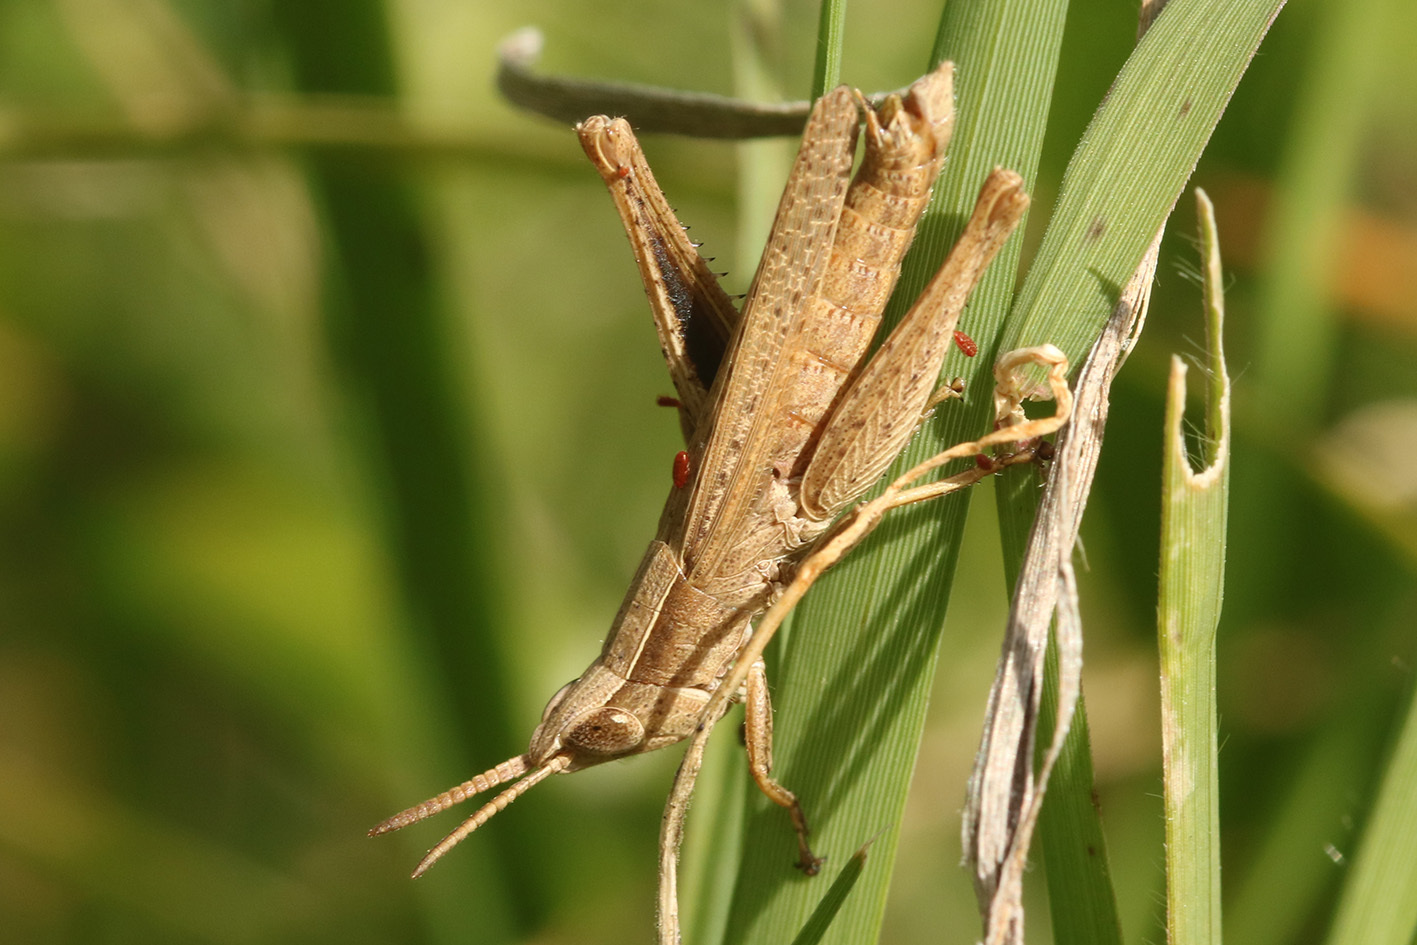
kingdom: Animalia
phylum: Arthropoda
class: Insecta
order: Orthoptera
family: Acrididae
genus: Laplatacris
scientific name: Laplatacris dispar
